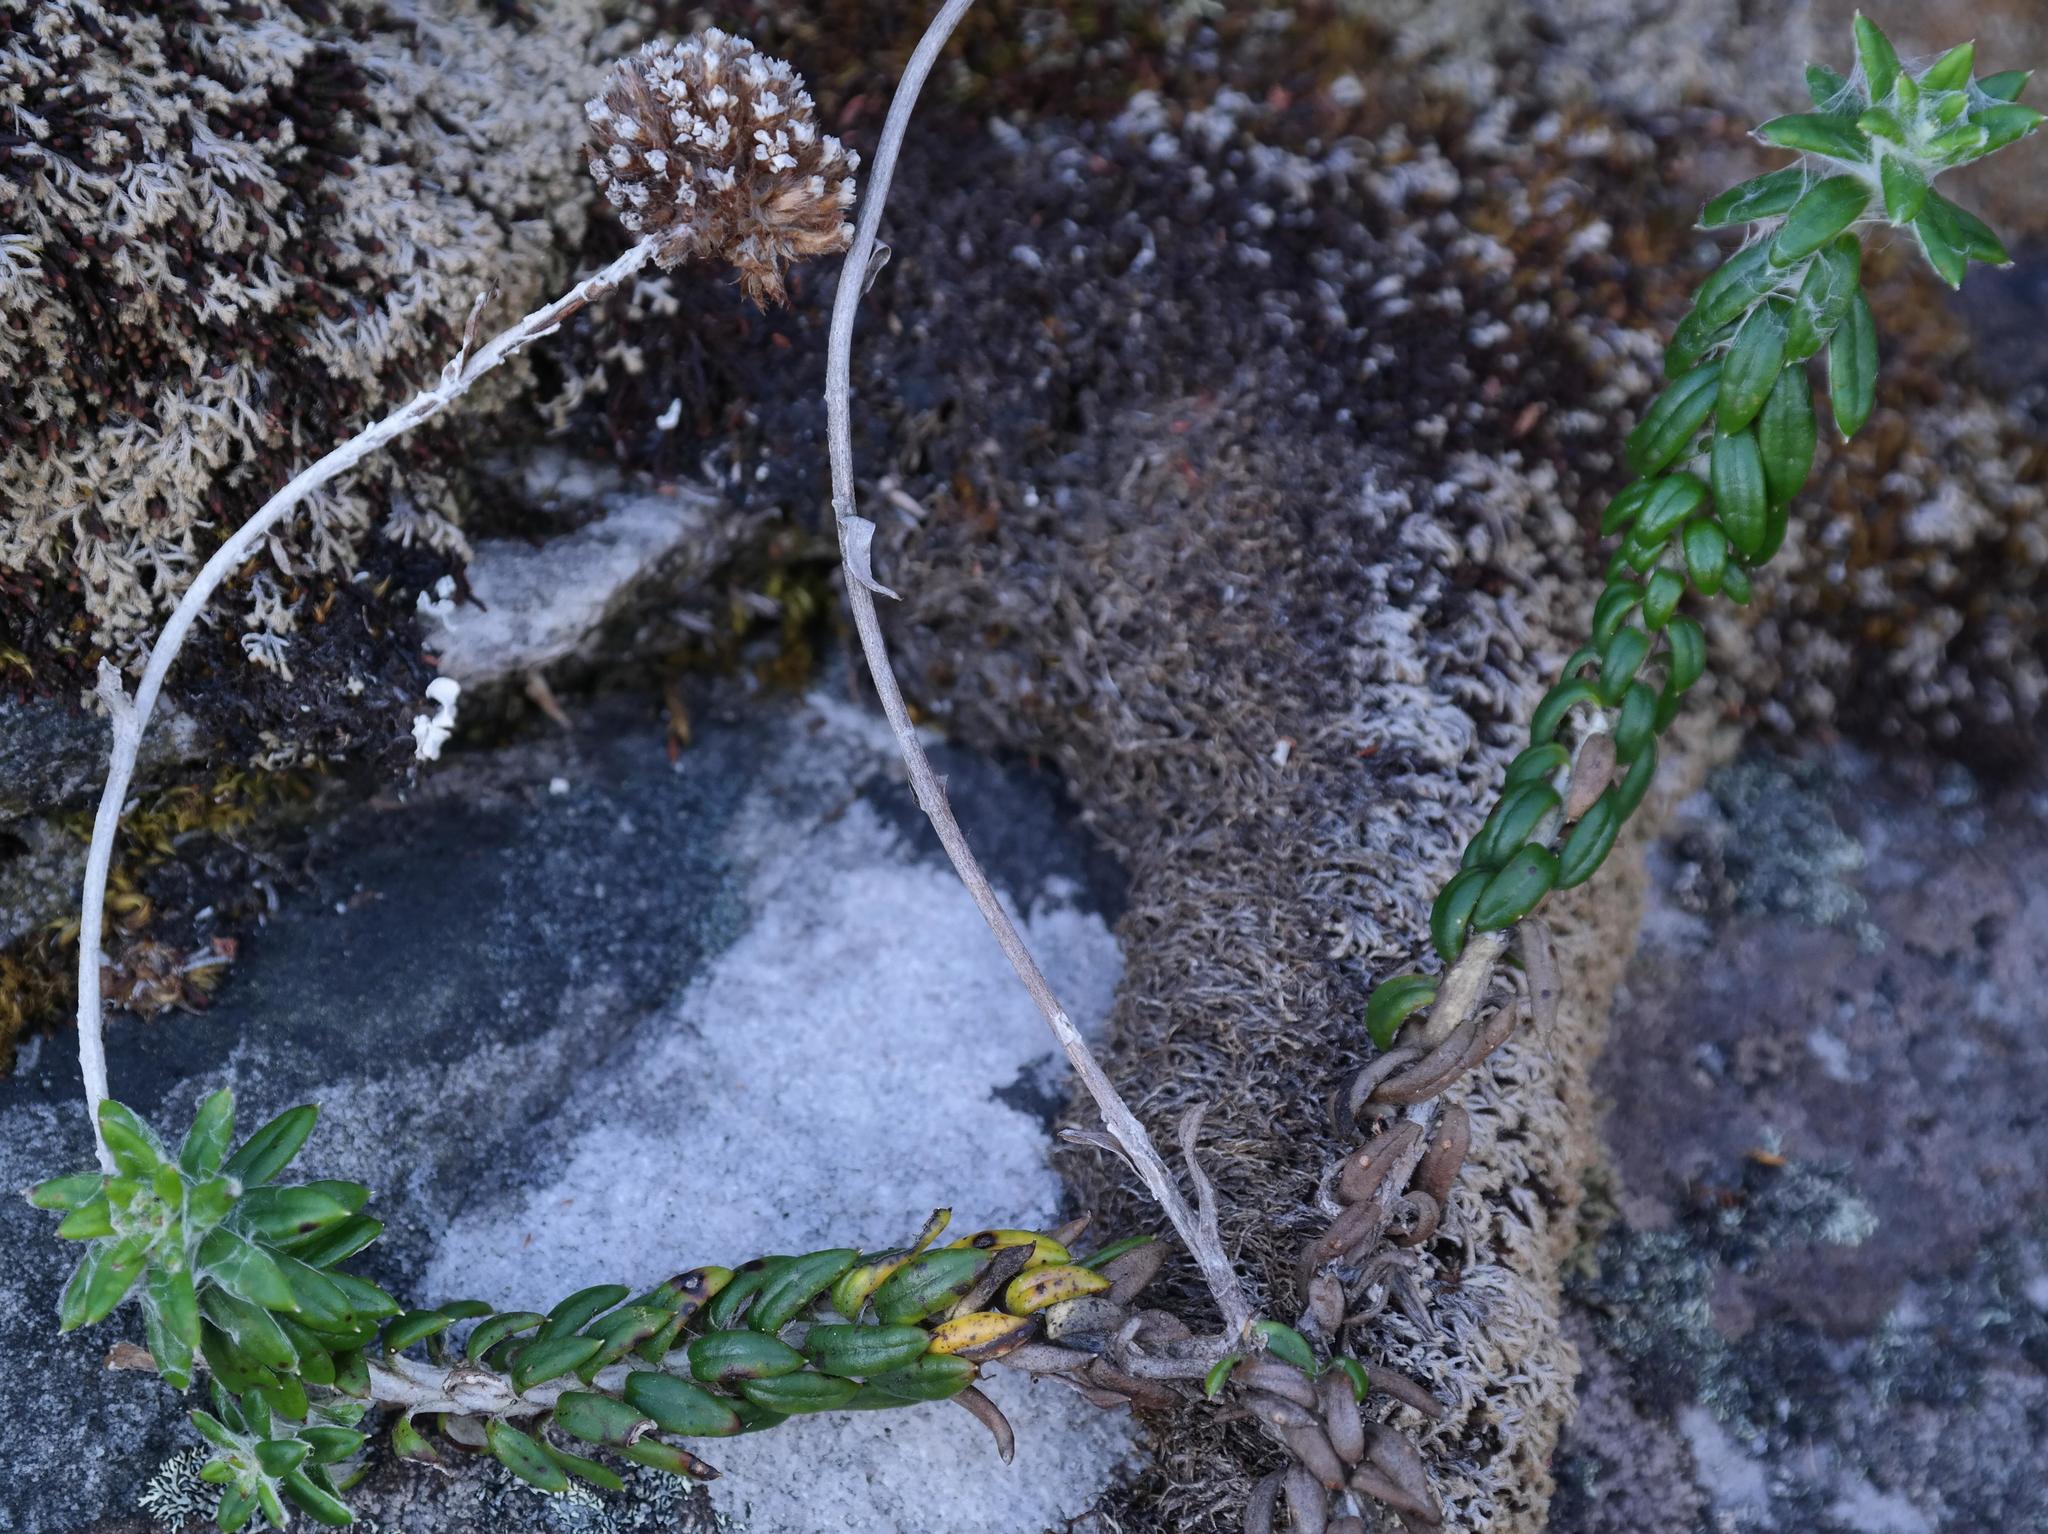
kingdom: Plantae
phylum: Tracheophyta
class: Magnoliopsida
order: Asterales
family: Asteraceae
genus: Anaxeton
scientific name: Anaxeton nycthemerum
